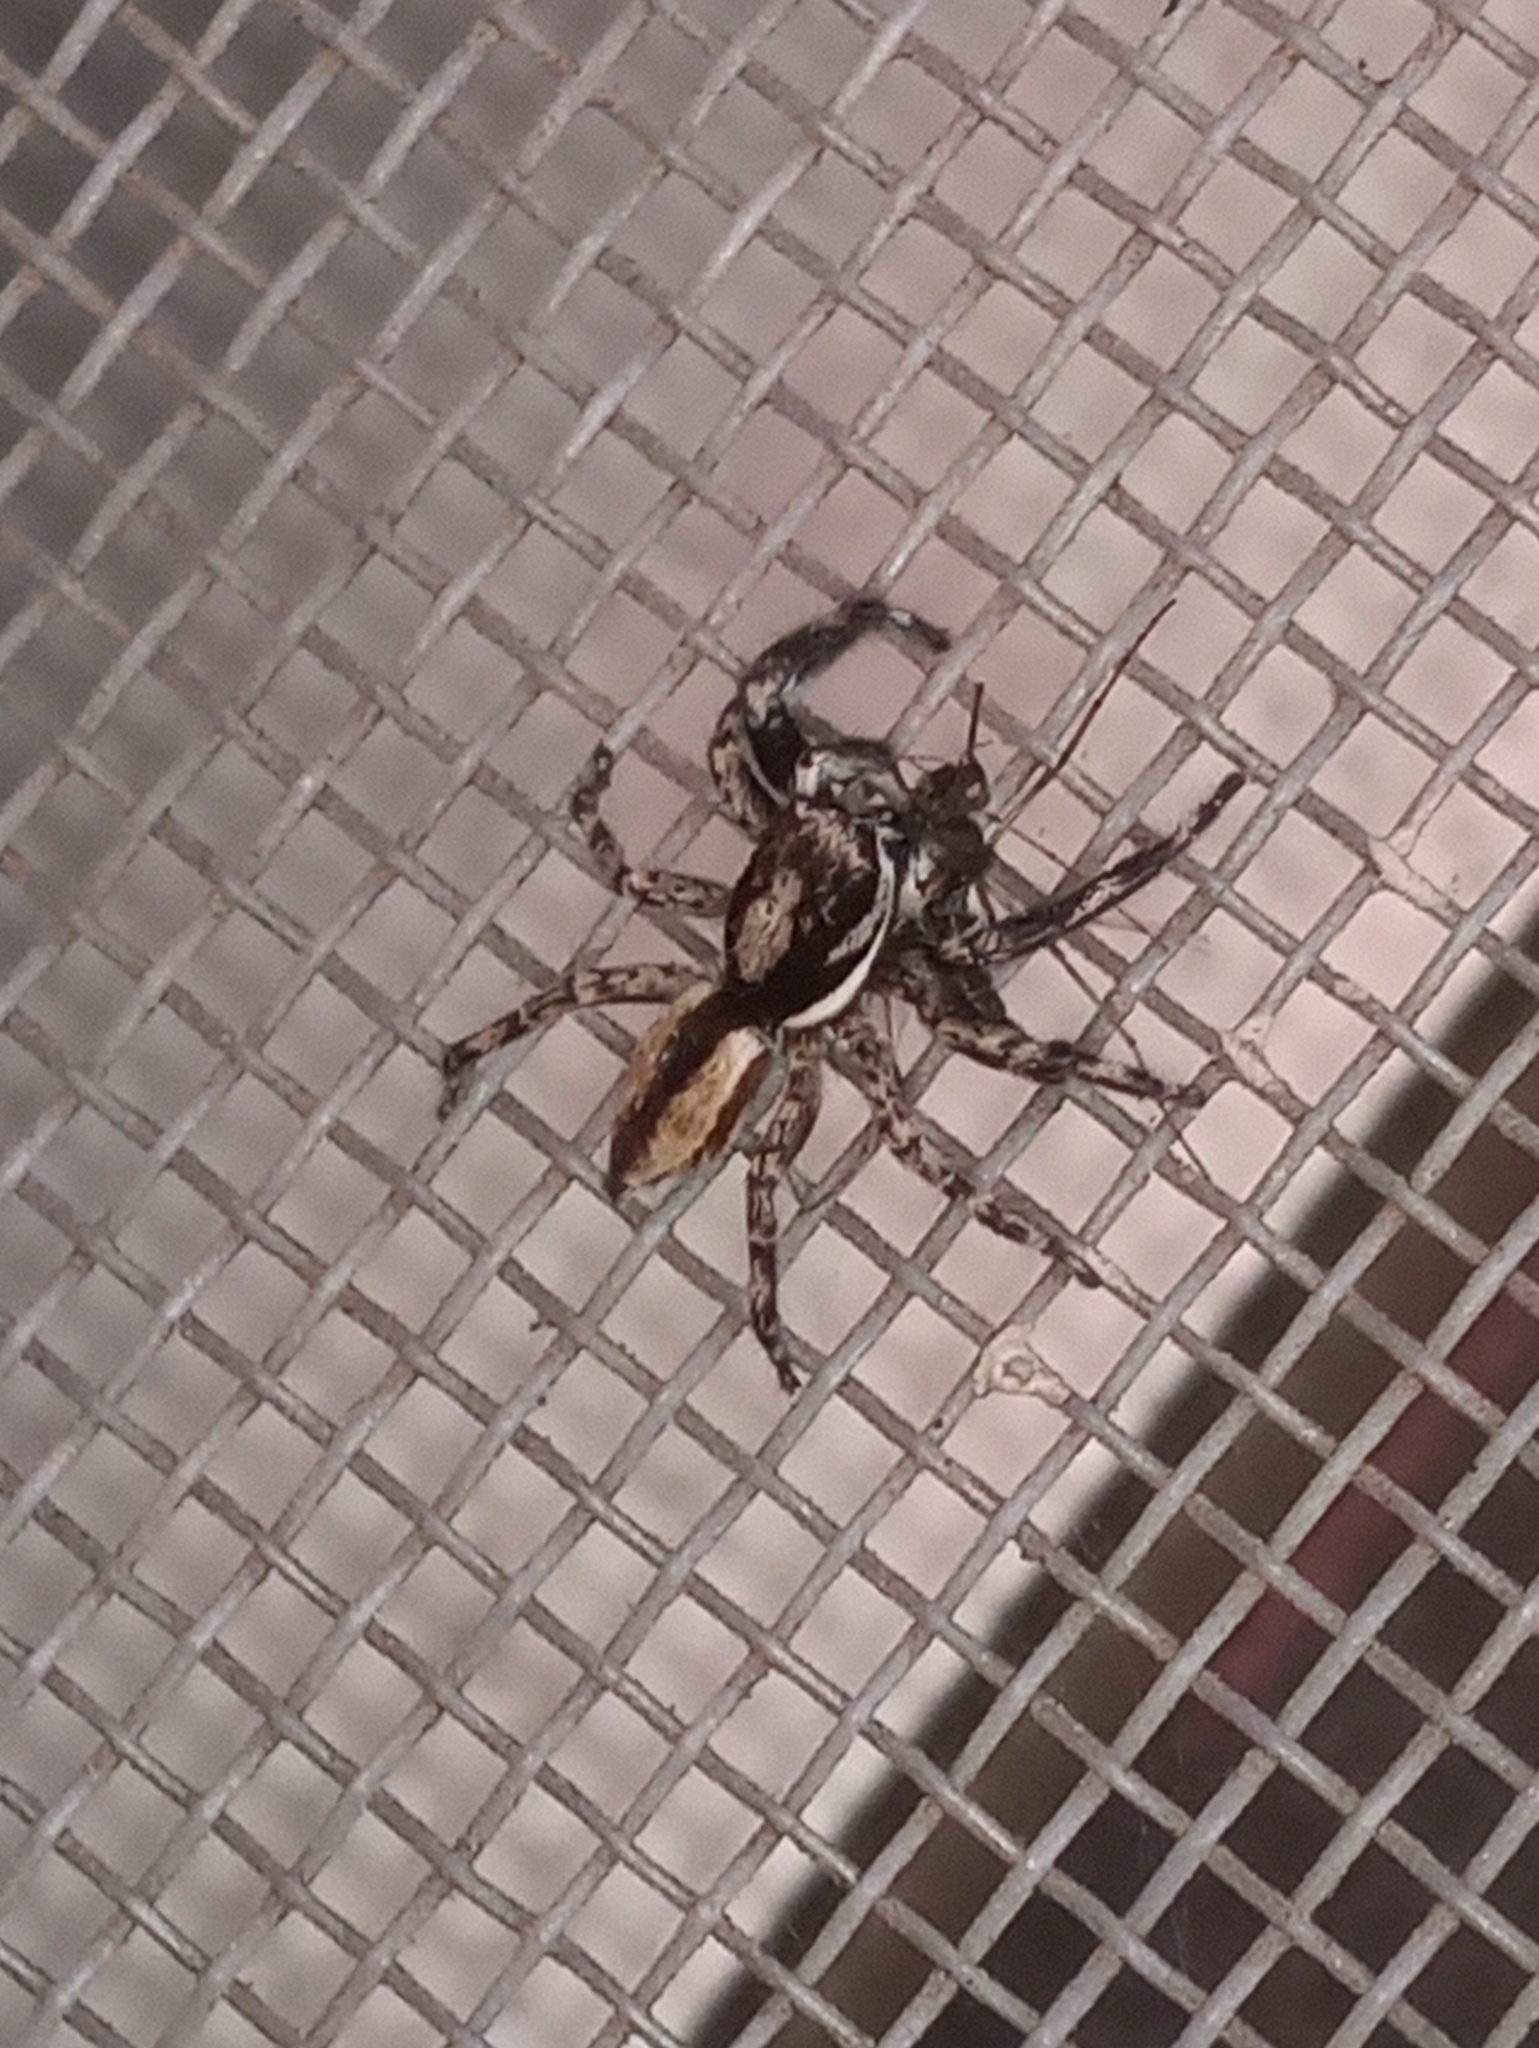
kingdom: Animalia
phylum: Arthropoda
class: Arachnida
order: Araneae
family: Salticidae
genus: Menemerus
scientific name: Menemerus bivittatus
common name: Gray wall jumper
